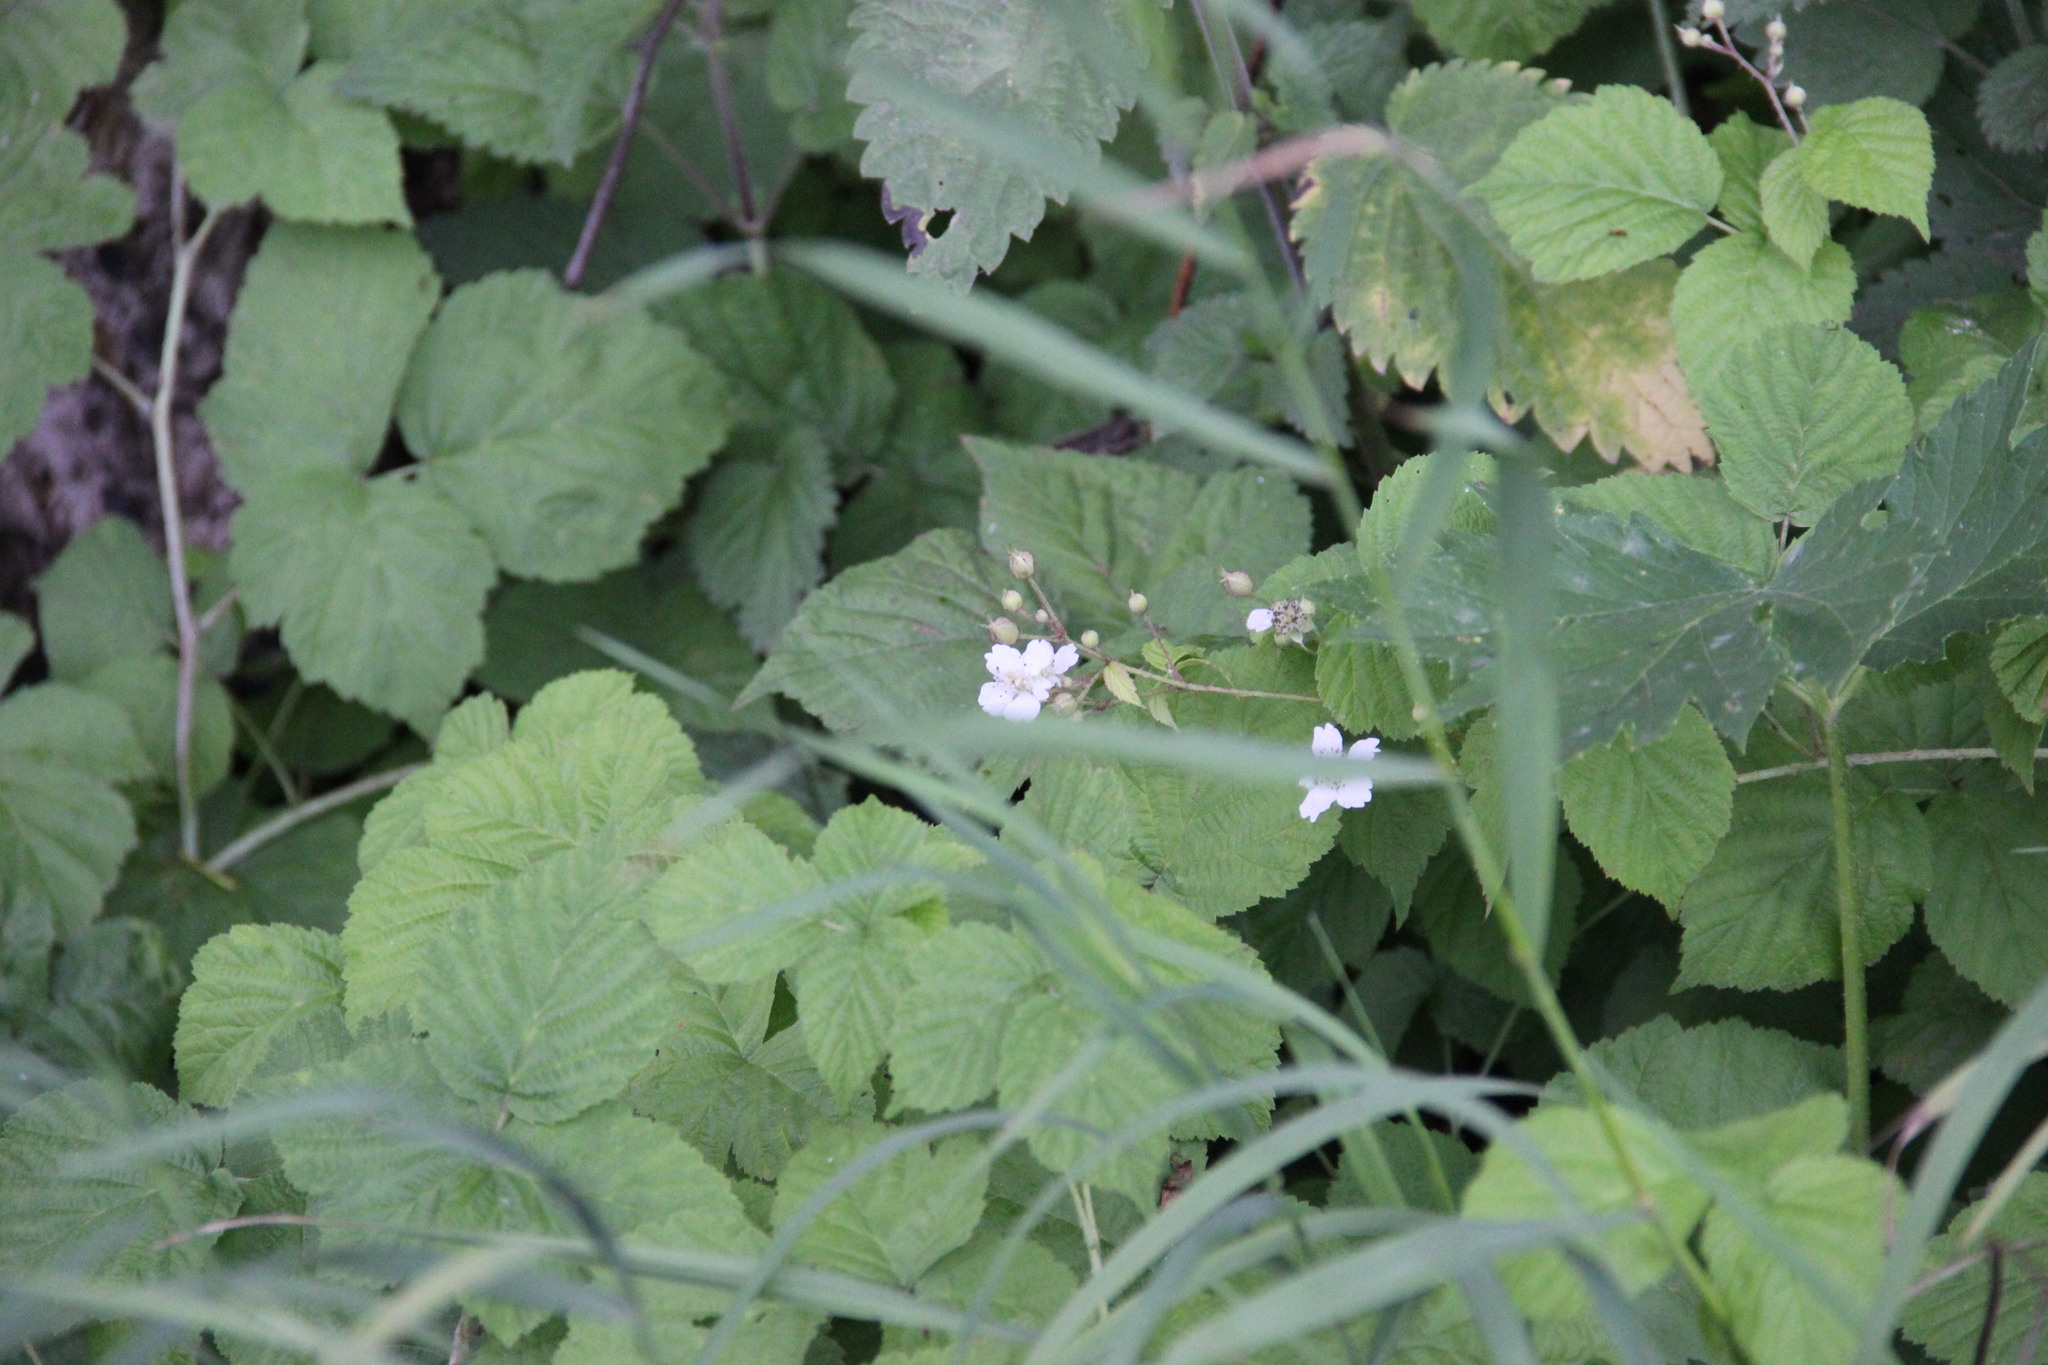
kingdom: Plantae
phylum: Tracheophyta
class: Magnoliopsida
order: Rosales
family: Rosaceae
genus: Rubus
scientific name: Rubus caesius
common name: Dewberry
